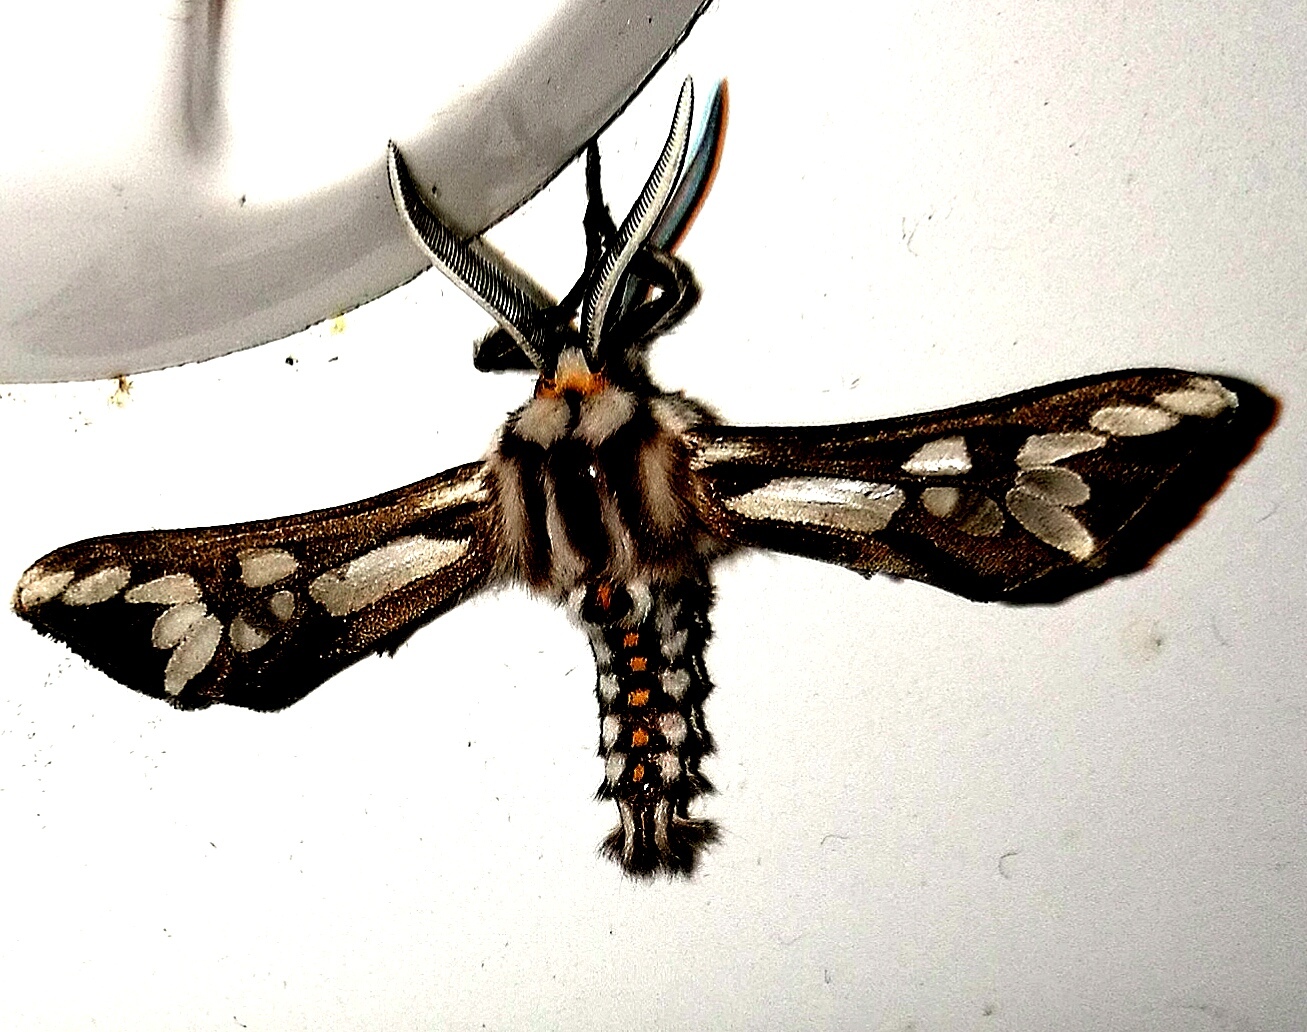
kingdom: Animalia
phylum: Arthropoda
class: Insecta
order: Lepidoptera
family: Erebidae
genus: Thyretes
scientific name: Thyretes hippotes
